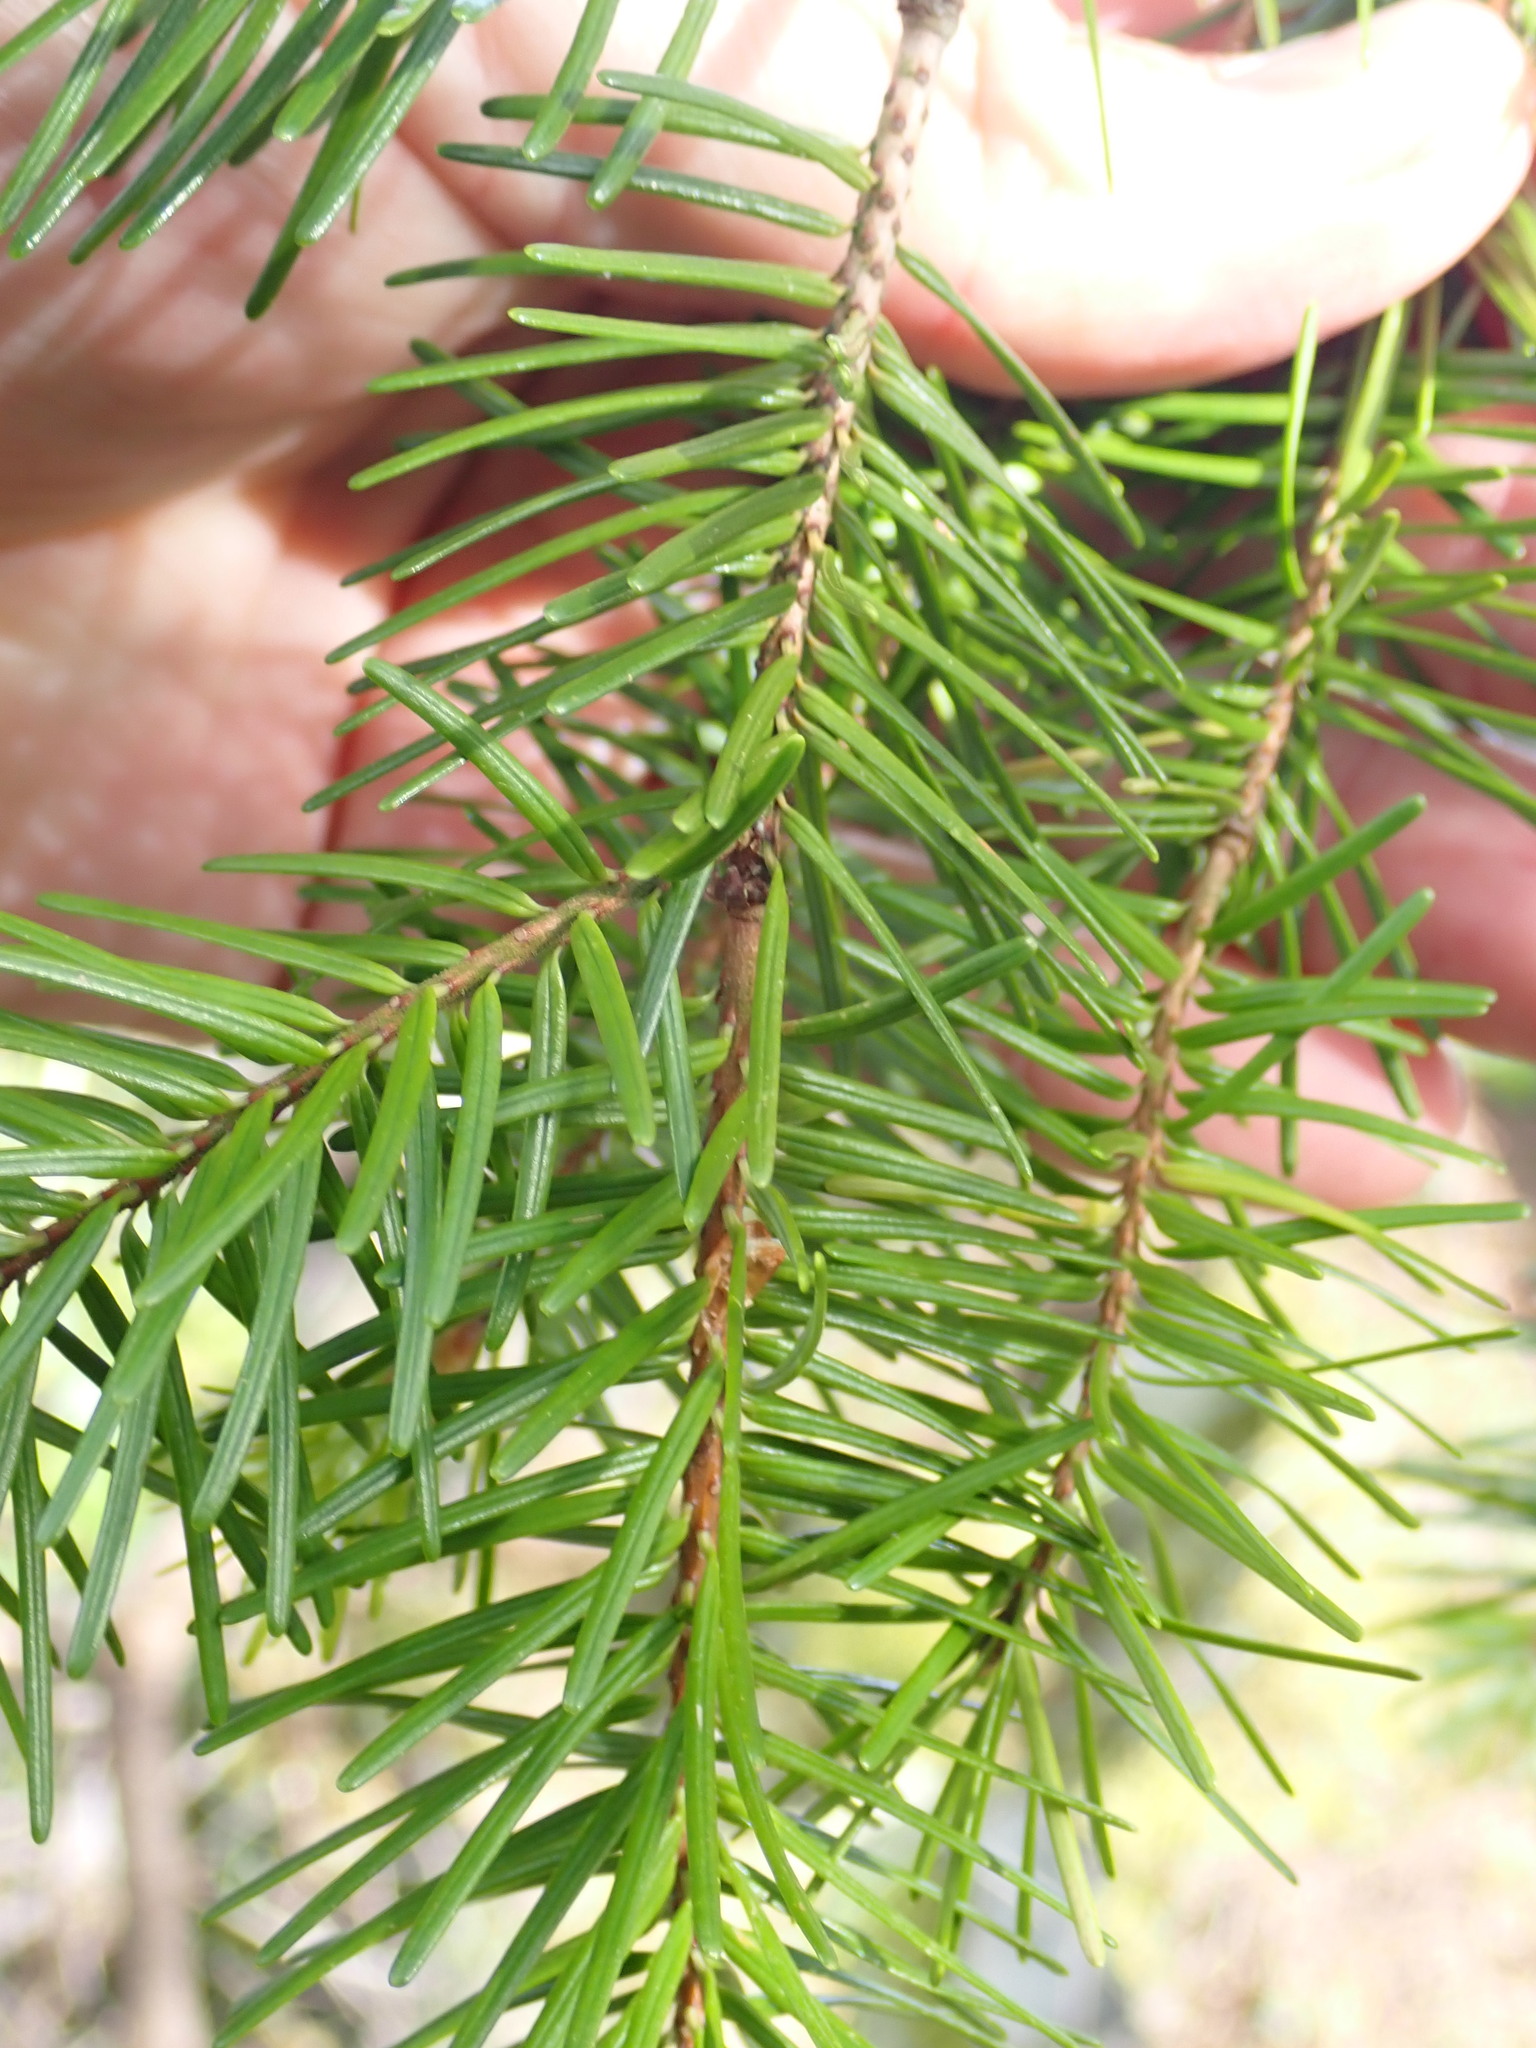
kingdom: Plantae
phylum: Tracheophyta
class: Pinopsida
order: Pinales
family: Pinaceae
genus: Pseudotsuga
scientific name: Pseudotsuga menziesii
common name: Douglas fir
